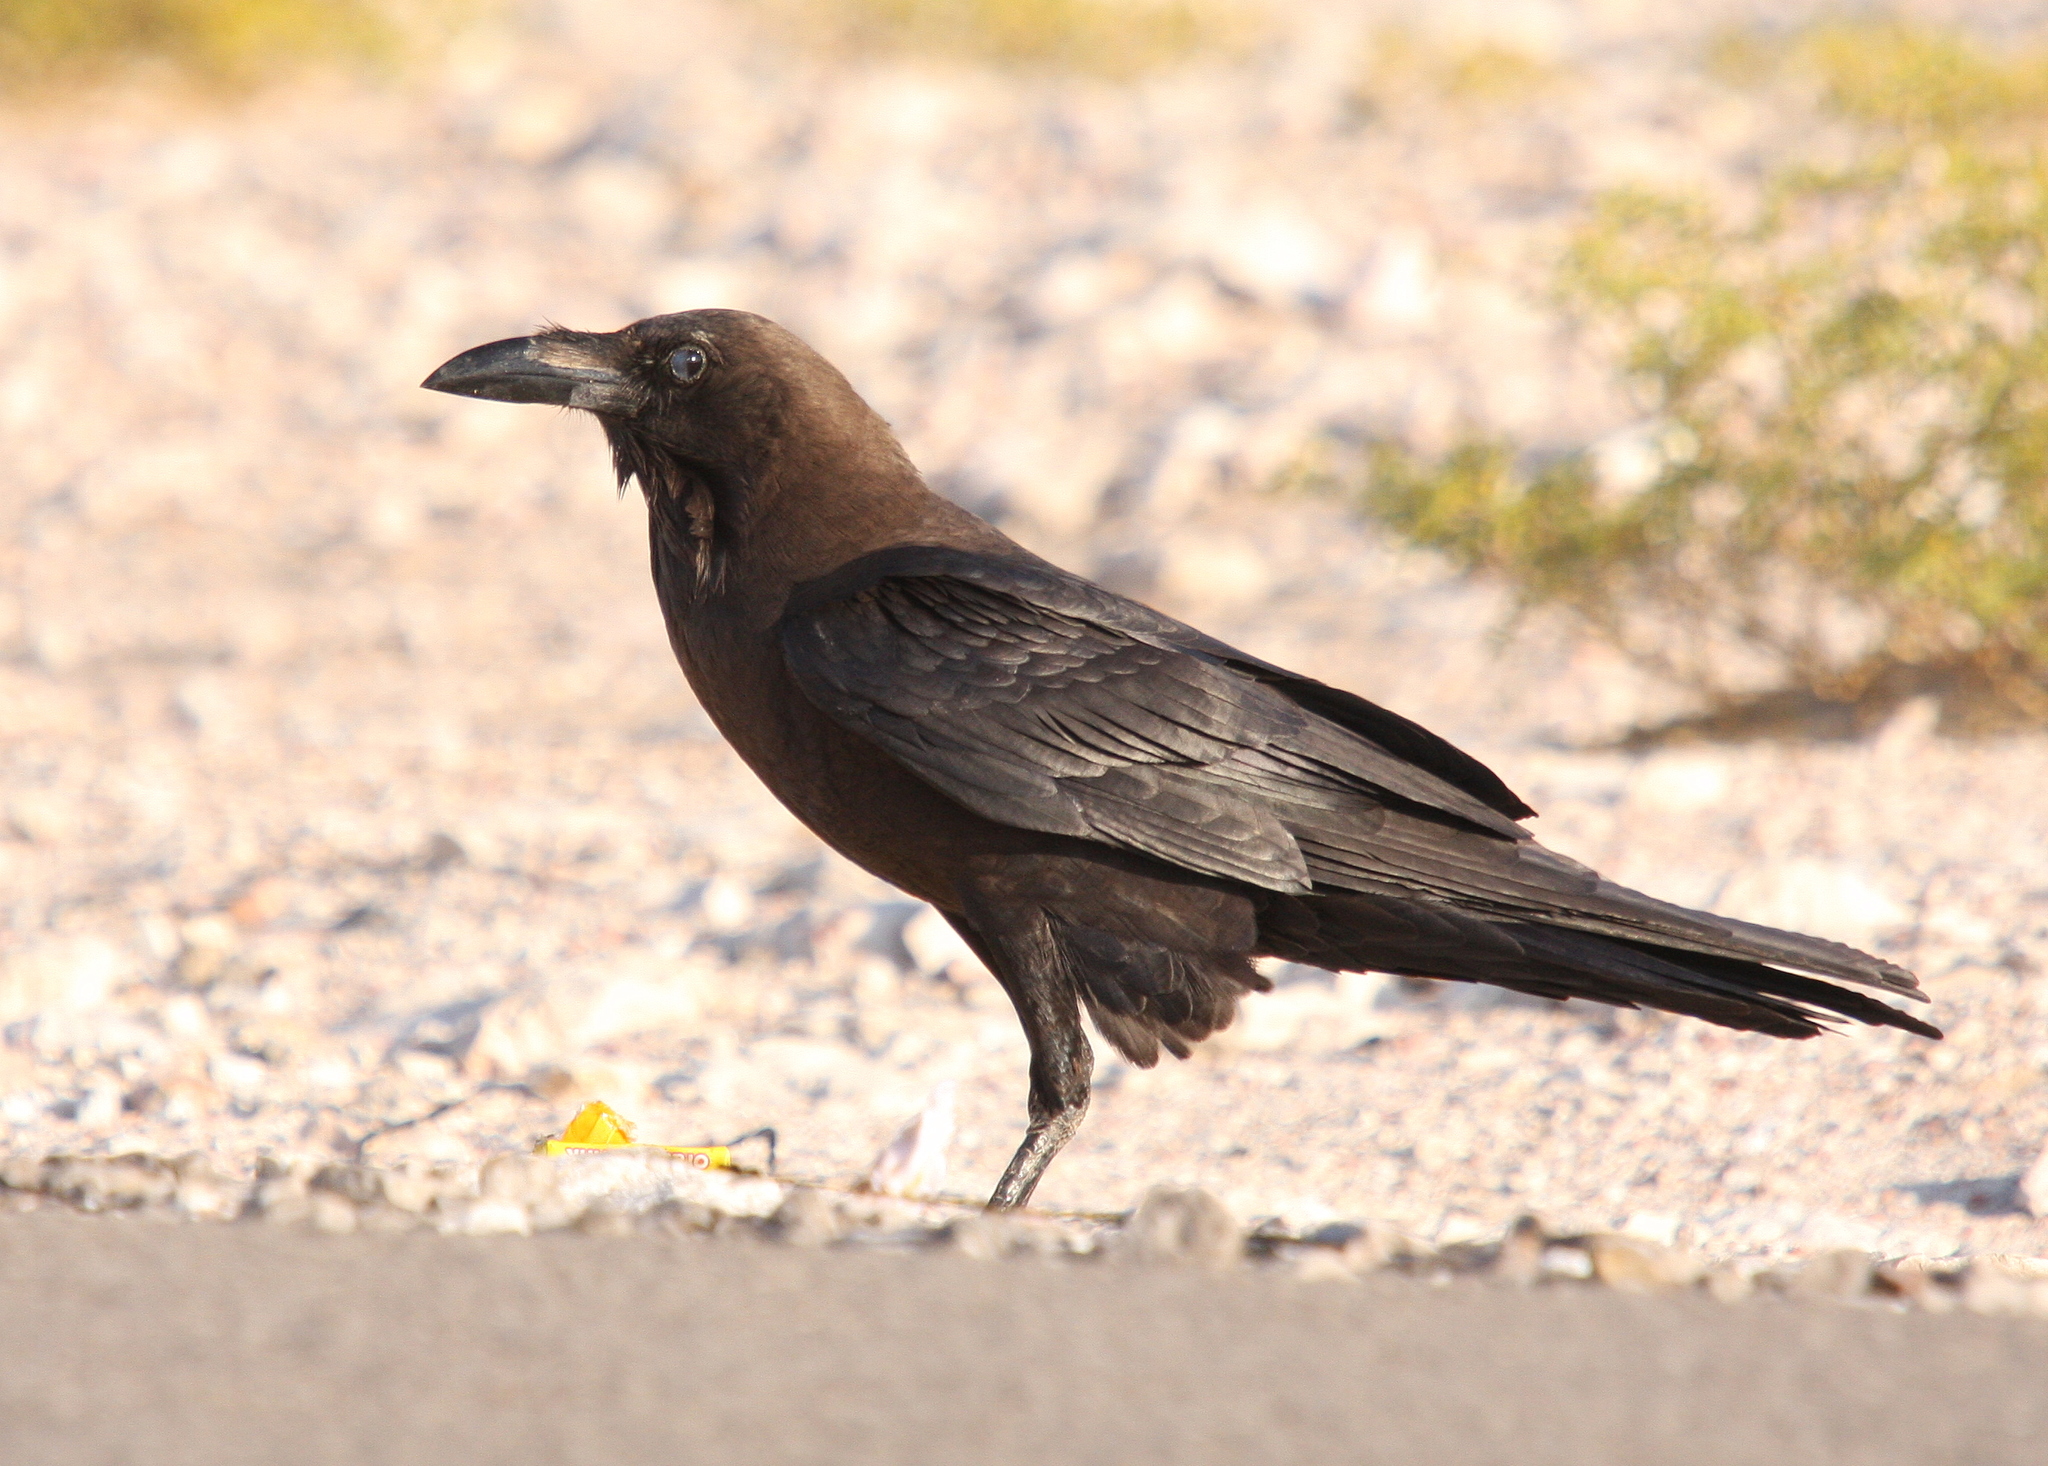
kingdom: Animalia
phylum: Chordata
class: Aves
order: Passeriformes
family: Corvidae
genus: Corvus
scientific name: Corvus ruficollis
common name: Brown-necked raven
